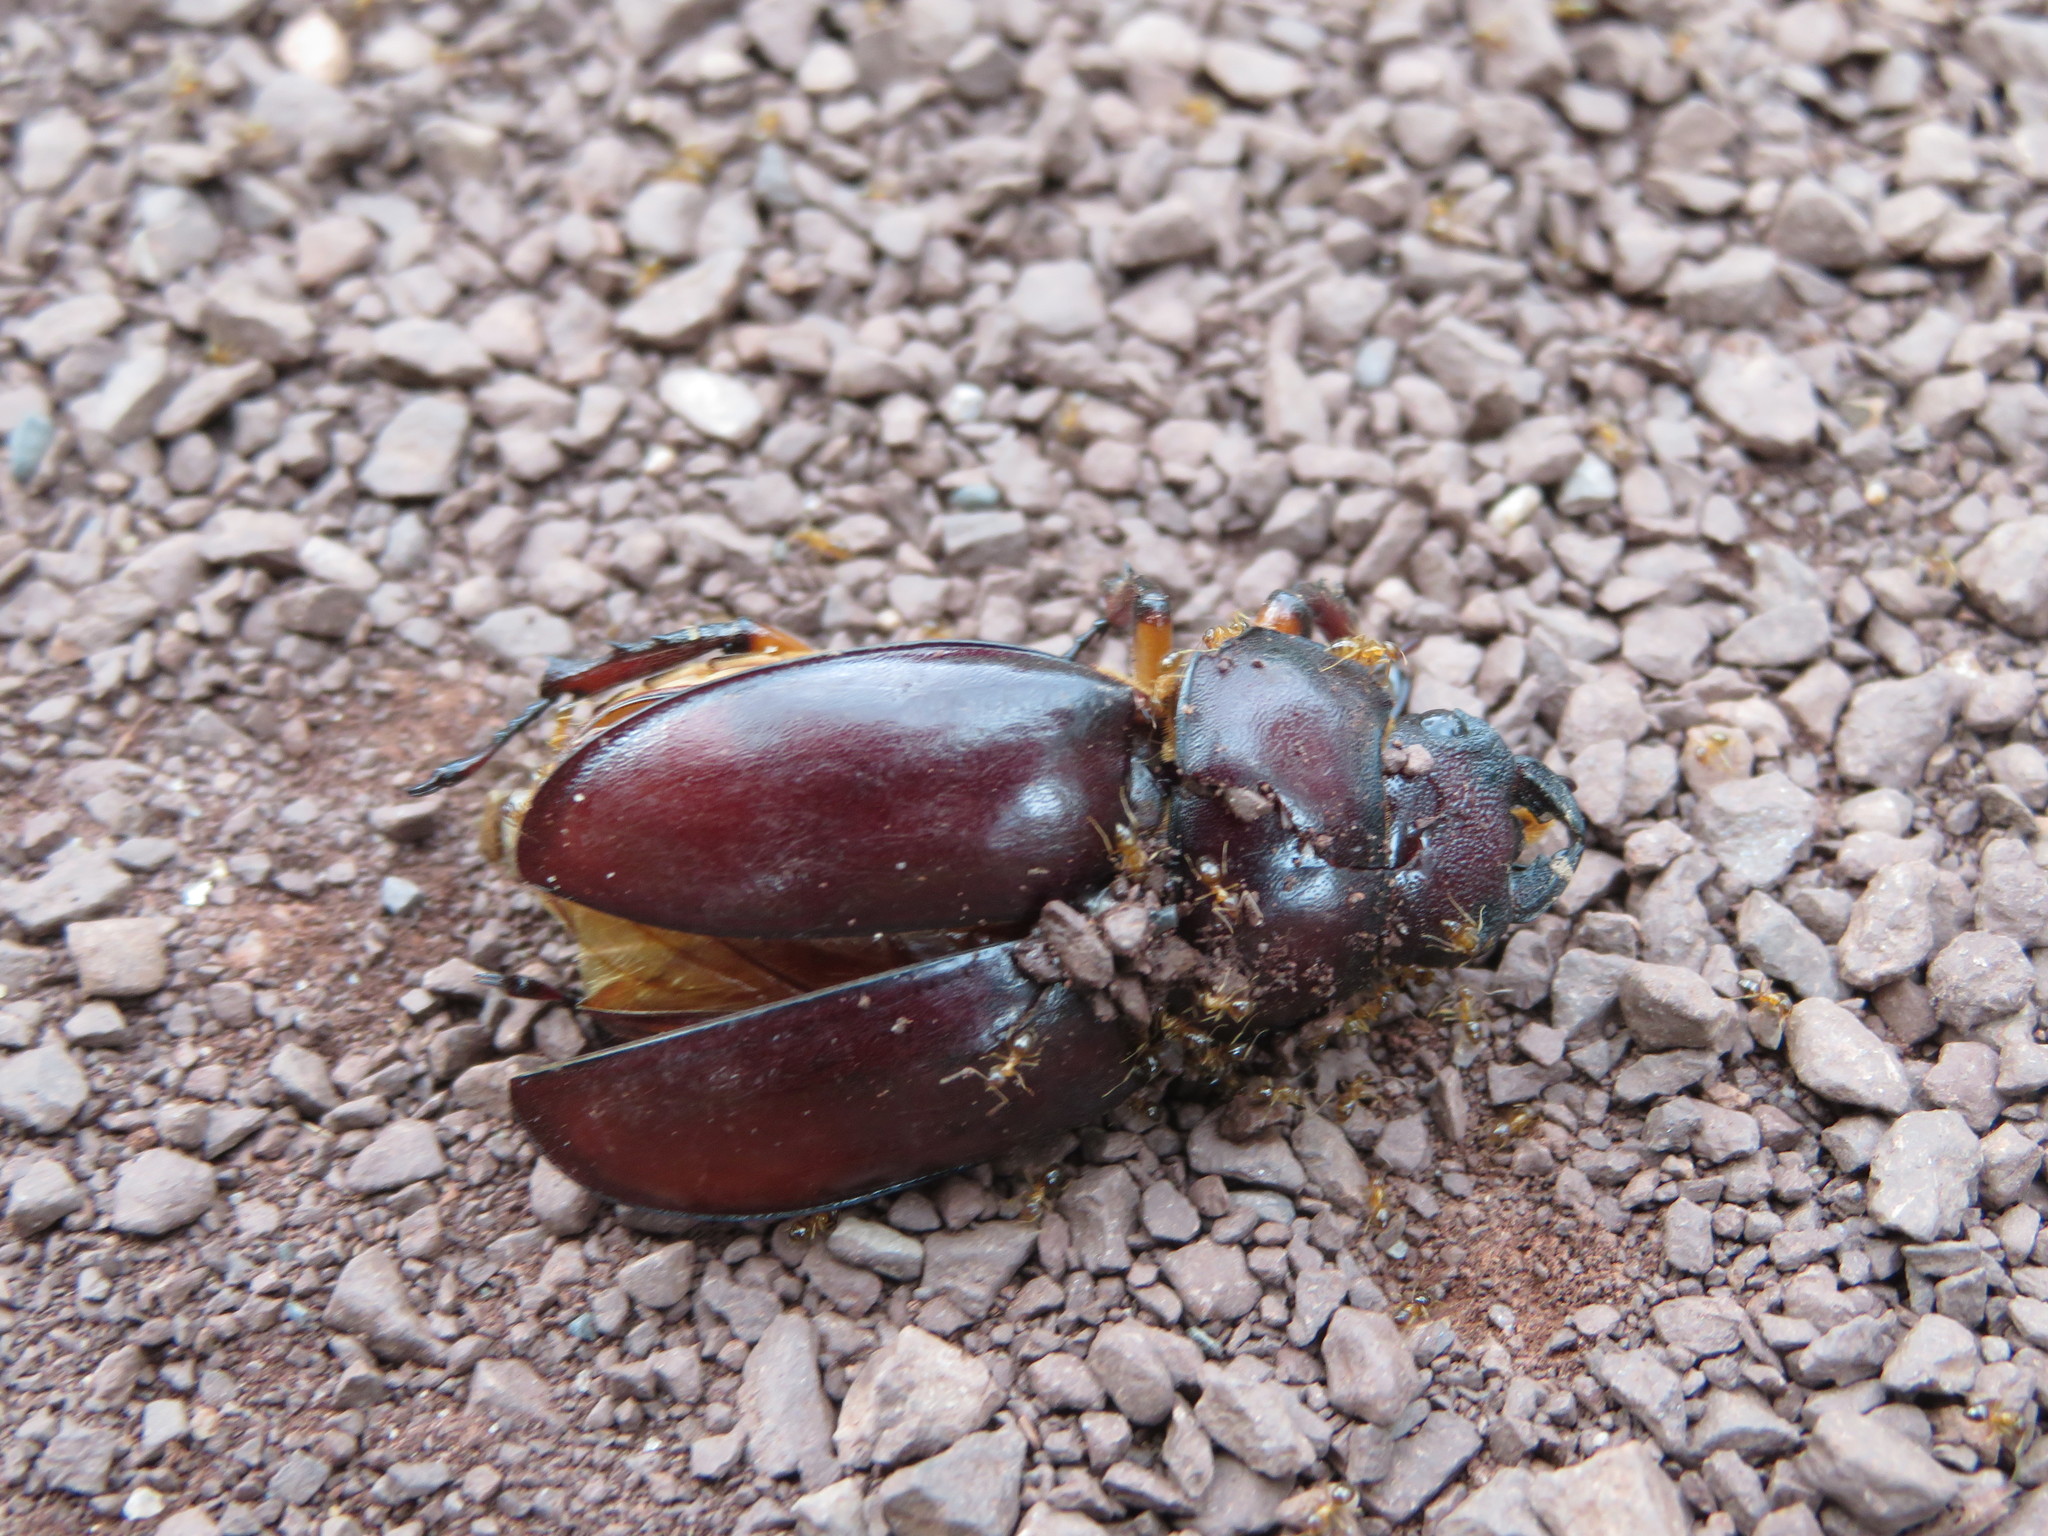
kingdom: Animalia
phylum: Arthropoda
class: Insecta
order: Coleoptera
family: Lucanidae
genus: Lucanus
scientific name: Lucanus capreolus
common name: Stag beetle
